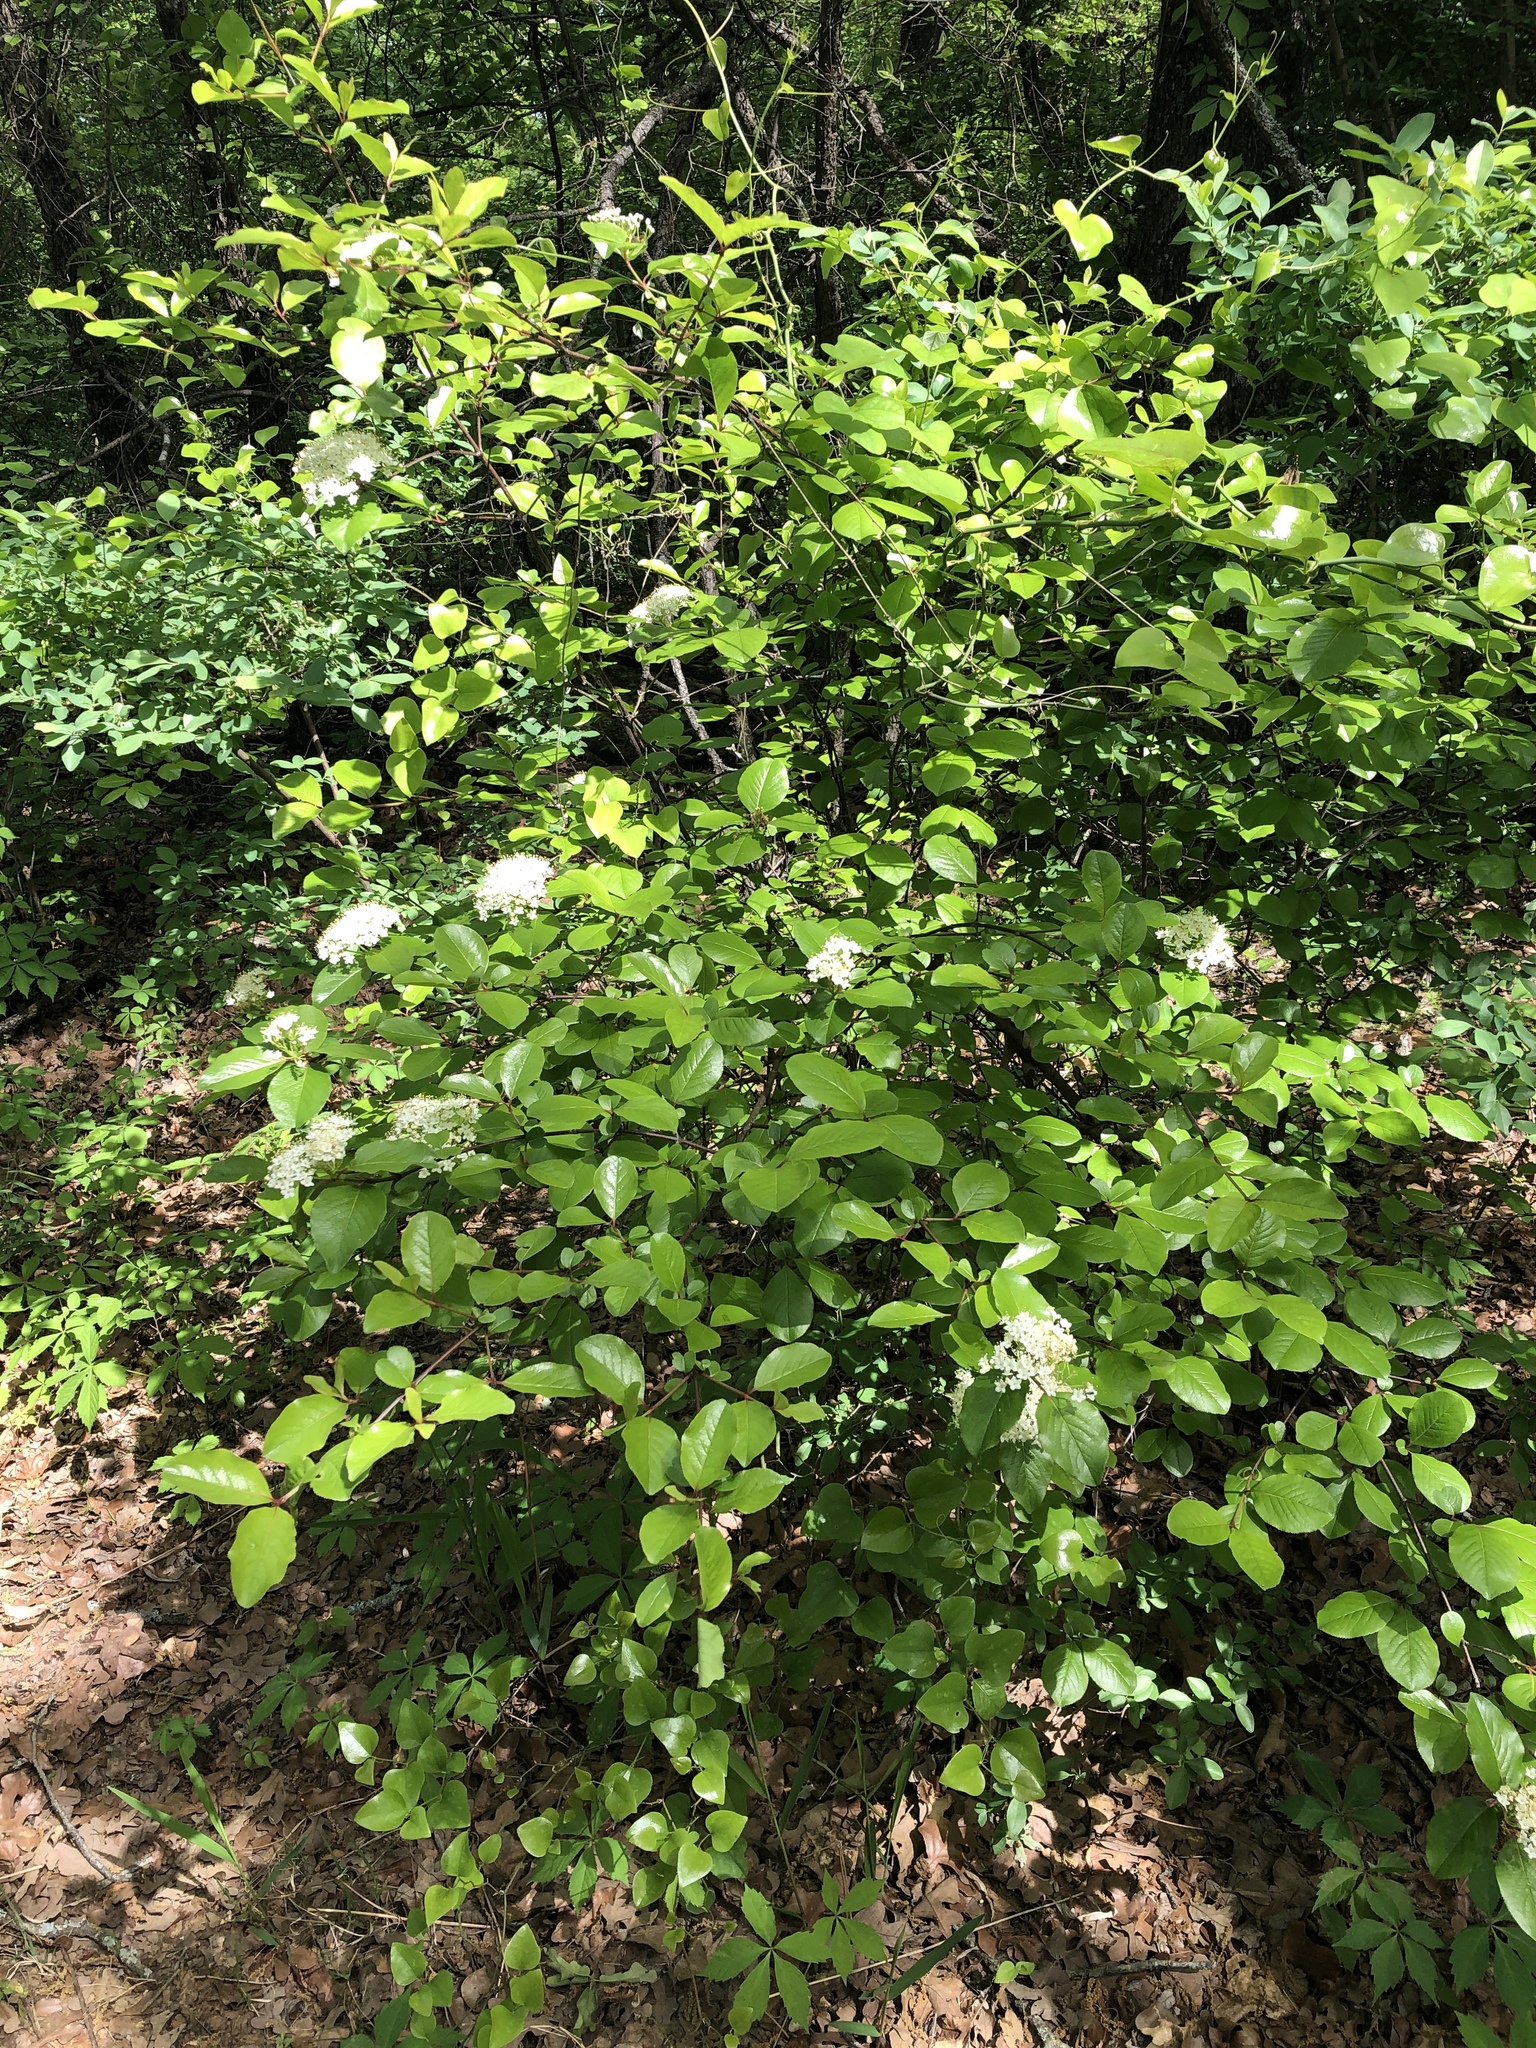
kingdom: Plantae
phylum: Tracheophyta
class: Magnoliopsida
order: Dipsacales
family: Viburnaceae
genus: Viburnum
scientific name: Viburnum rufidulum
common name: Blue haw
